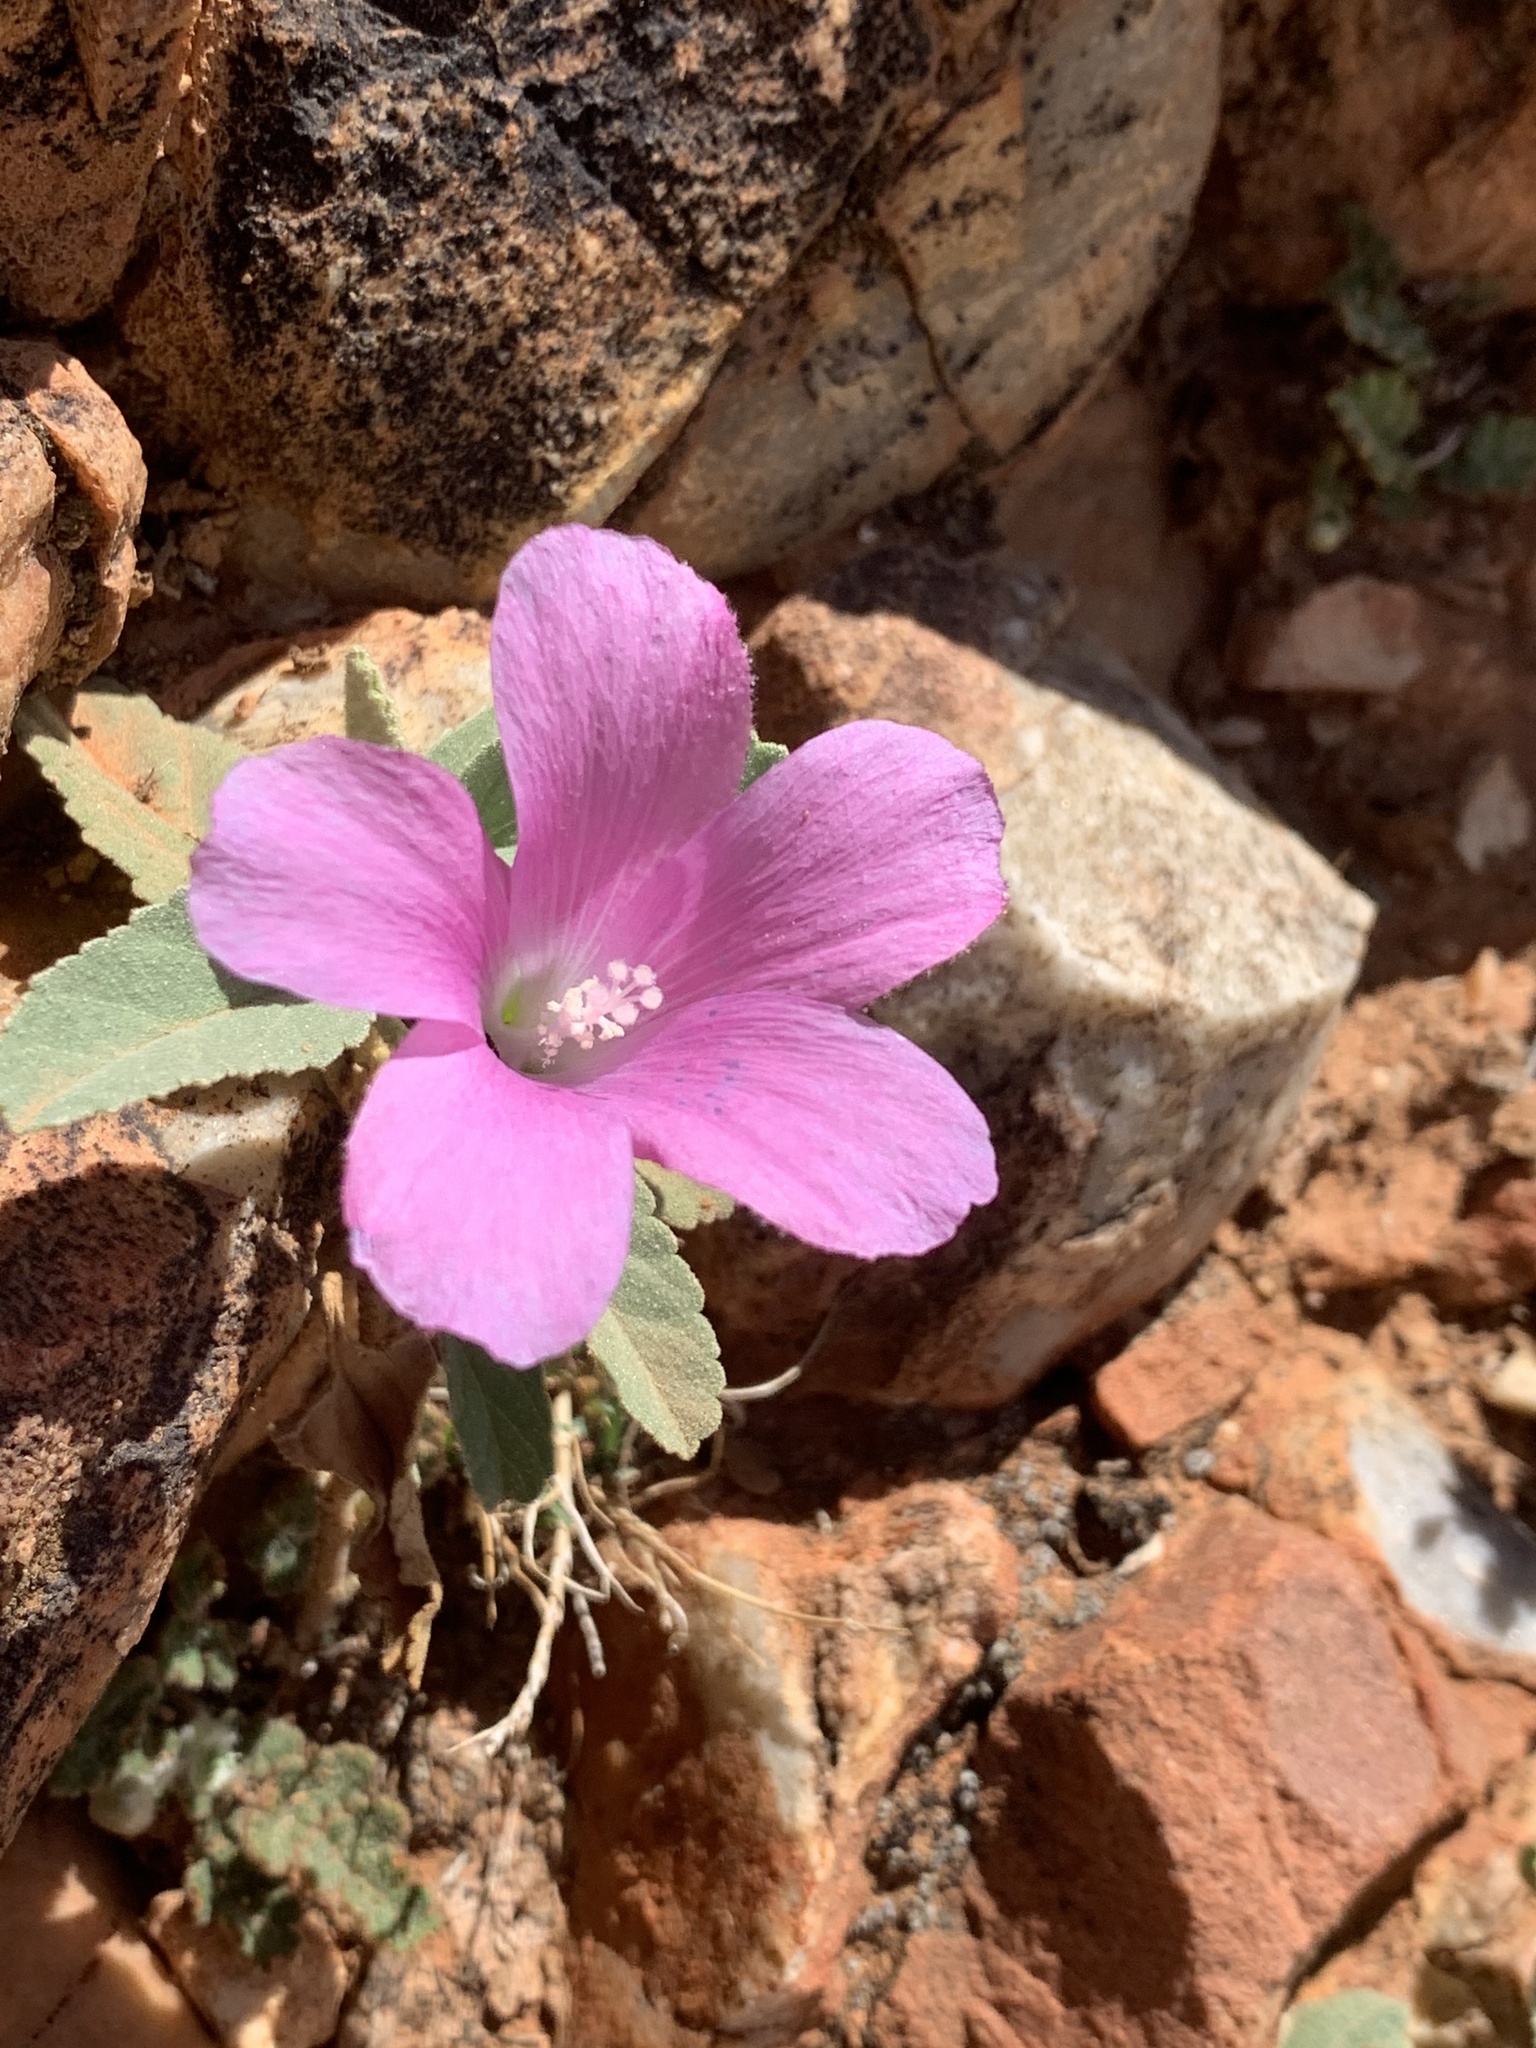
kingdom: Plantae
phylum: Tracheophyta
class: Magnoliopsida
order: Malvales
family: Malvaceae
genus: Hibiscus
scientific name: Hibiscus sturtii
